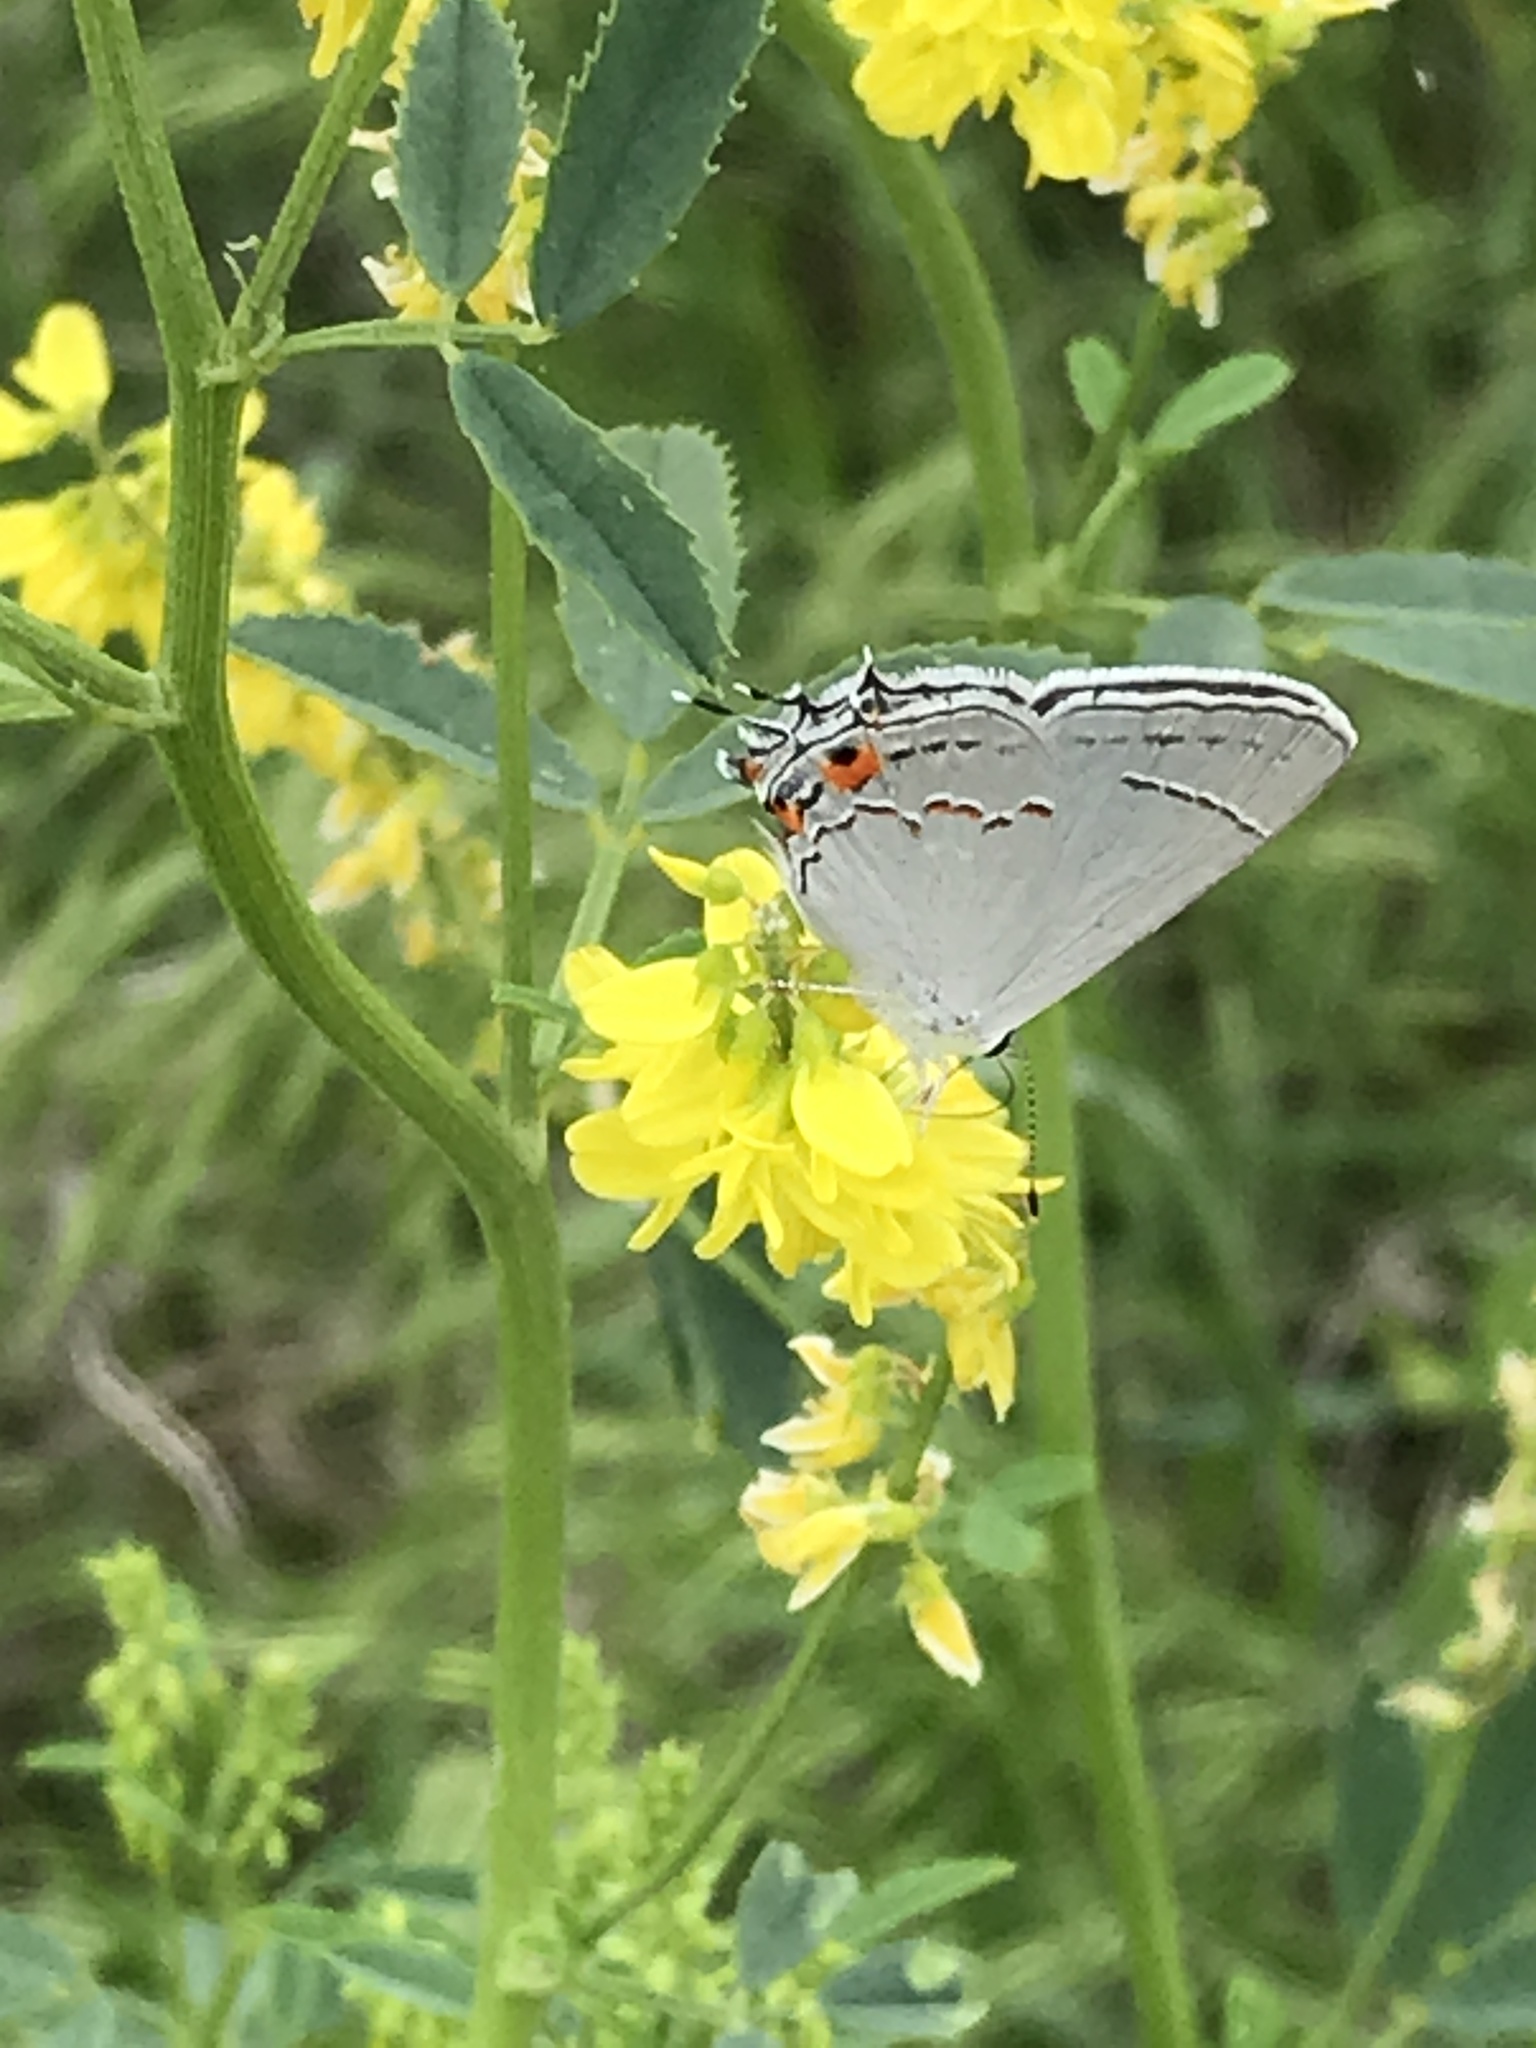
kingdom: Animalia
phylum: Arthropoda
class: Insecta
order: Lepidoptera
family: Lycaenidae
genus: Strymon
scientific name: Strymon melinus
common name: Gray hairstreak
